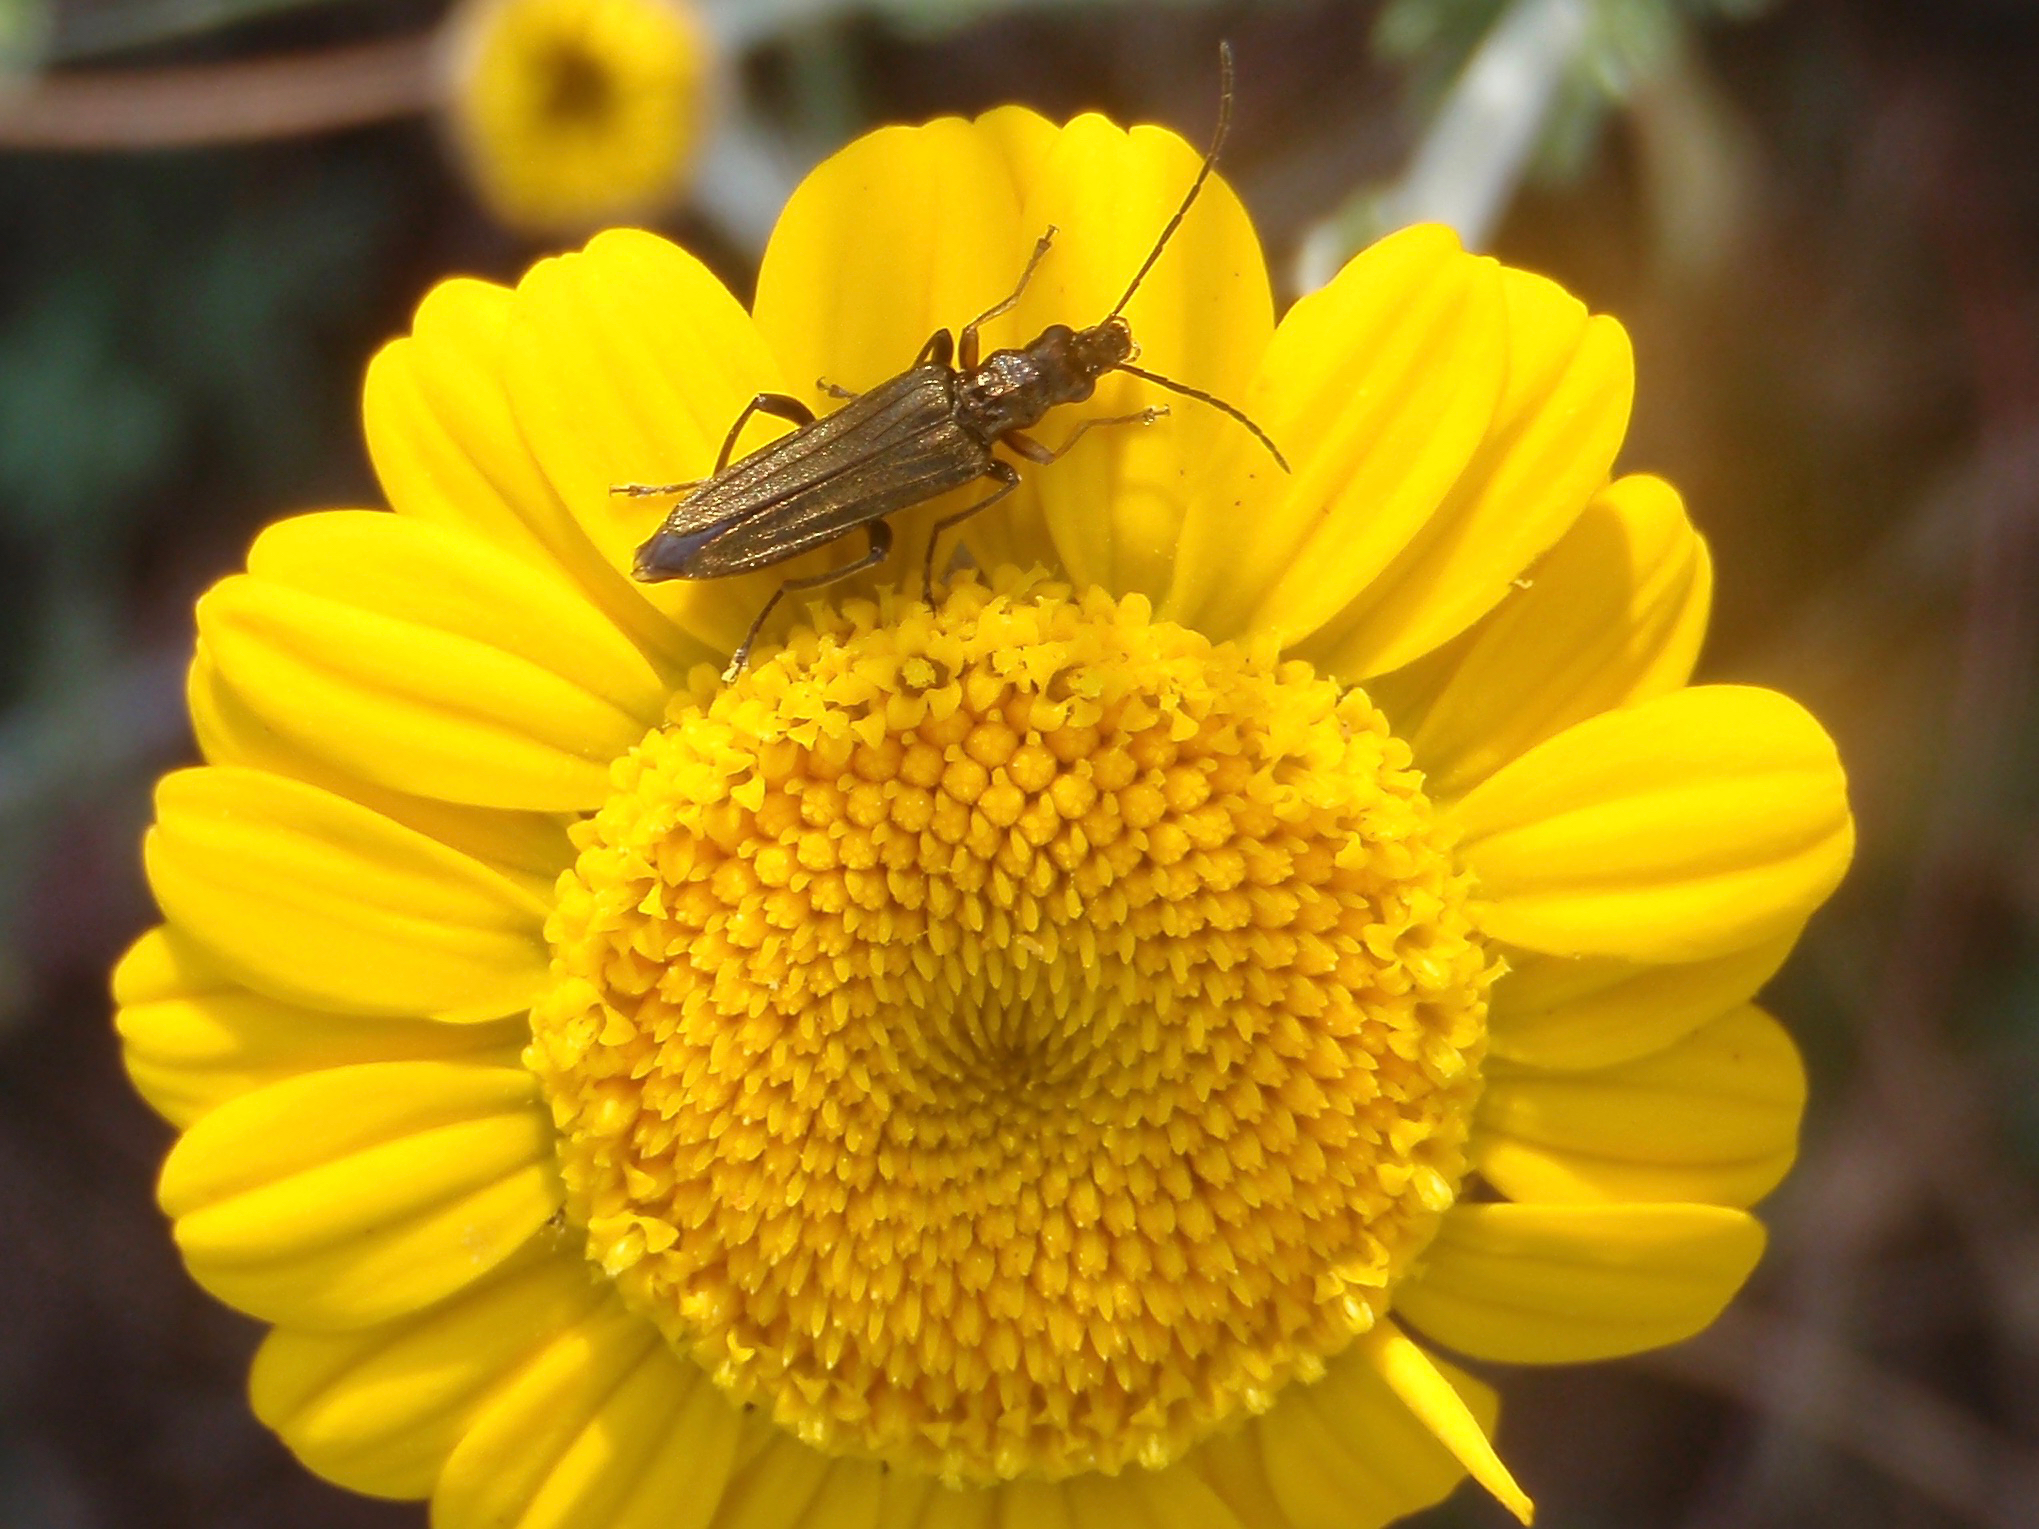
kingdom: Animalia
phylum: Arthropoda
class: Insecta
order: Coleoptera
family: Oedemeridae
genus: Oedemera
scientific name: Oedemera flavipes
